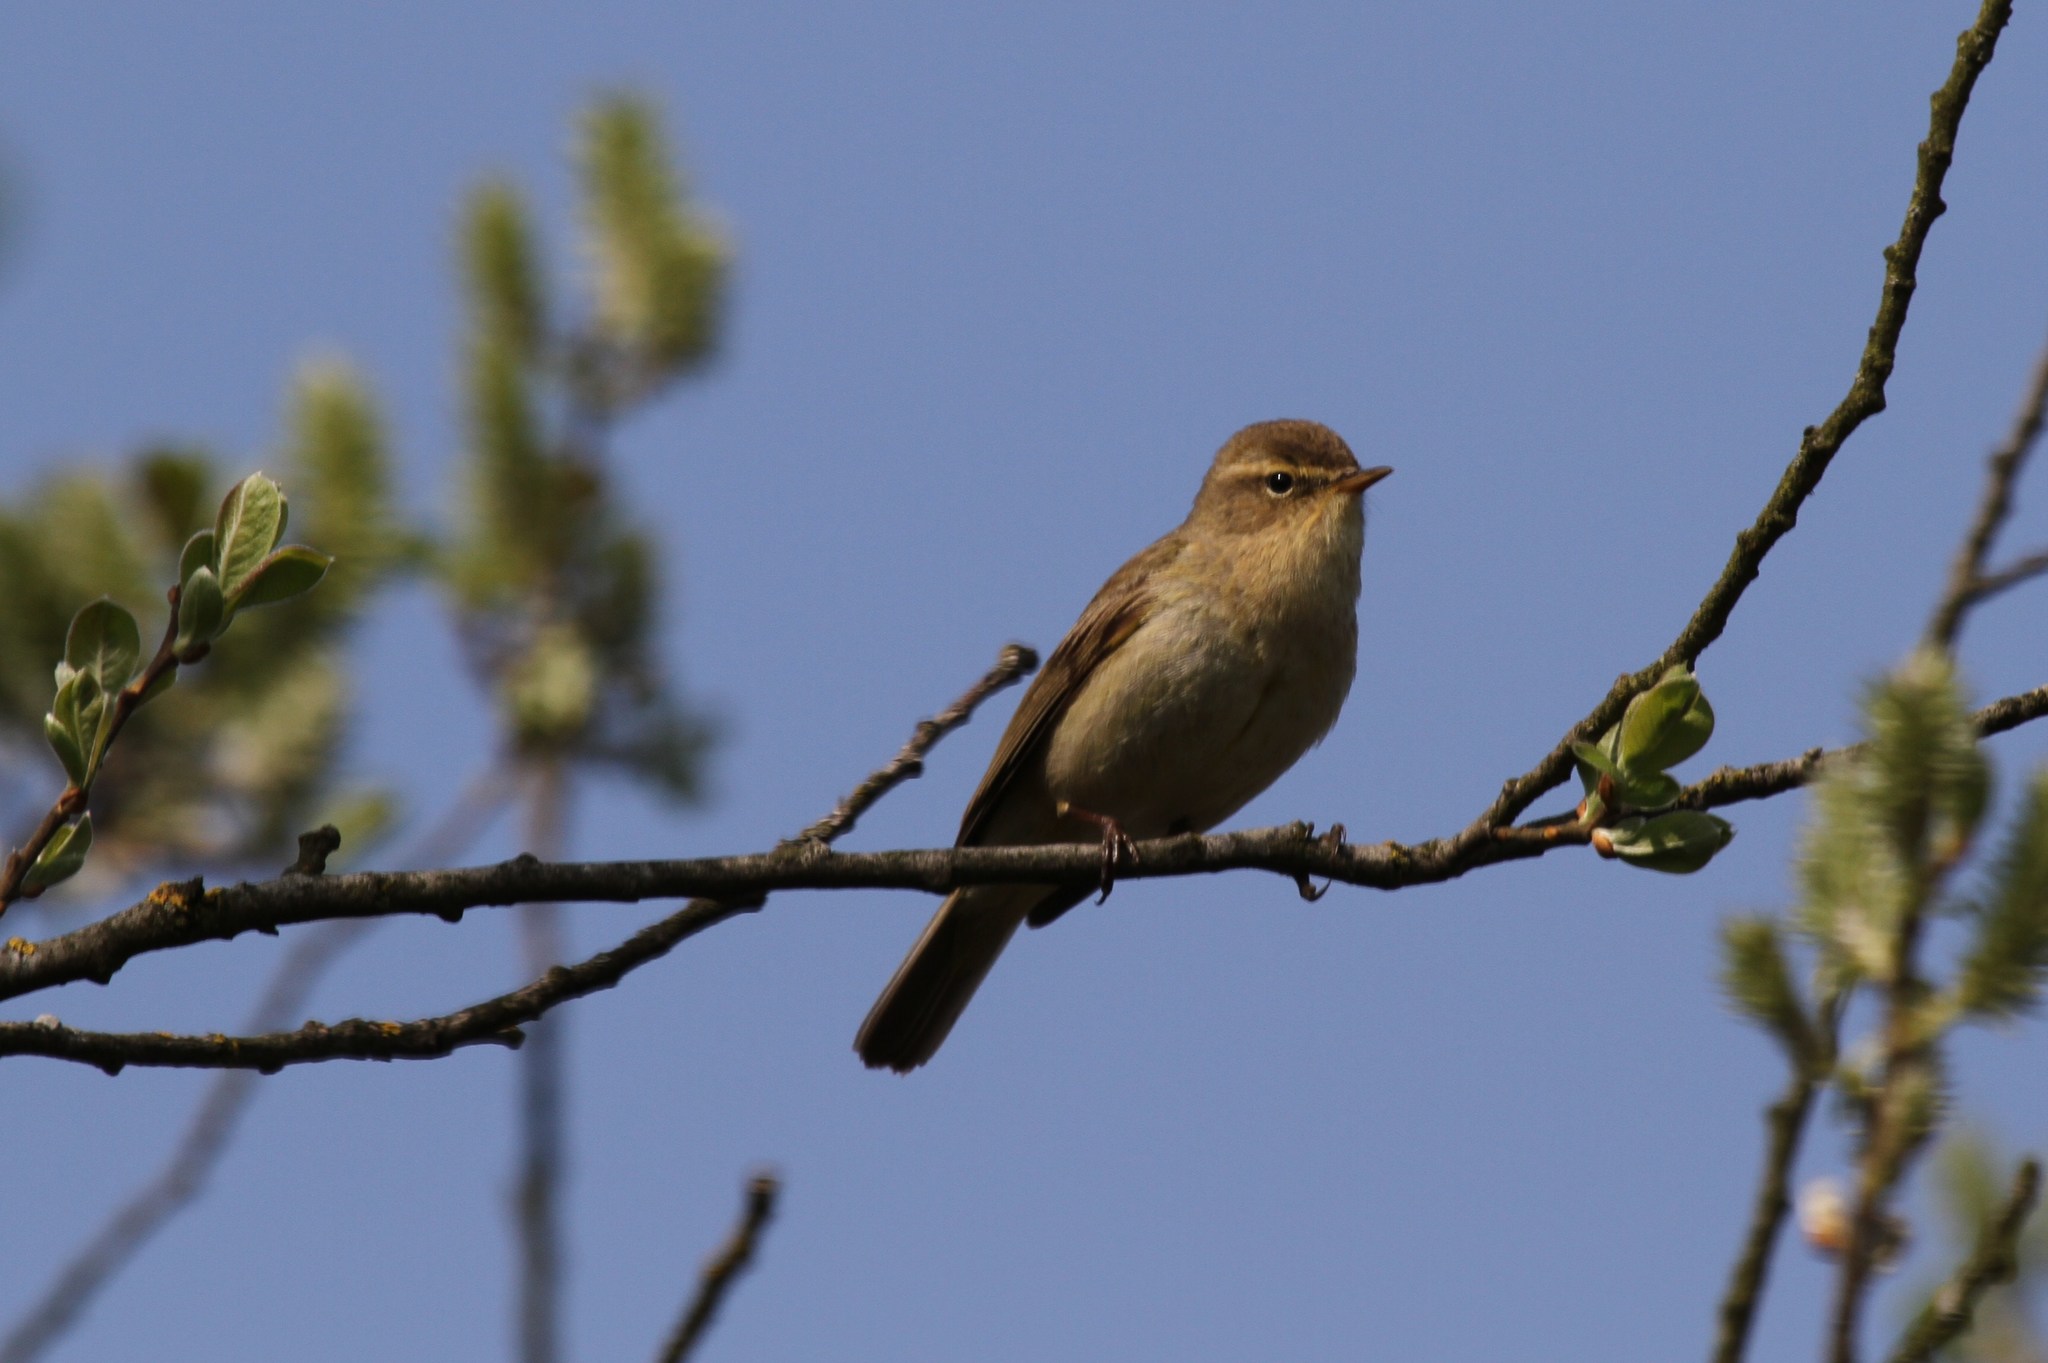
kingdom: Animalia
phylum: Chordata
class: Aves
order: Passeriformes
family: Phylloscopidae
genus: Phylloscopus
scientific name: Phylloscopus collybita
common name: Common chiffchaff
